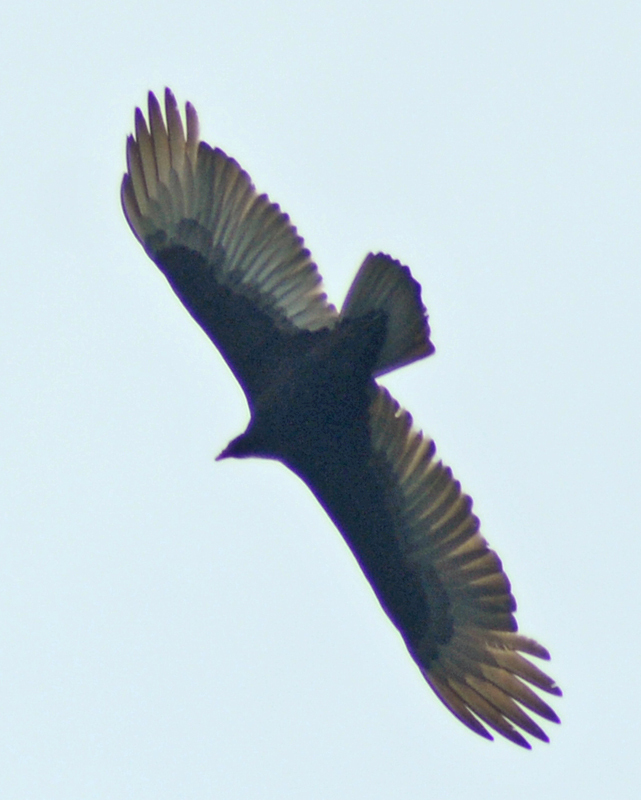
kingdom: Animalia
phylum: Chordata
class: Aves
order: Accipitriformes
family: Cathartidae
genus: Cathartes
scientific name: Cathartes aura
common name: Turkey vulture
